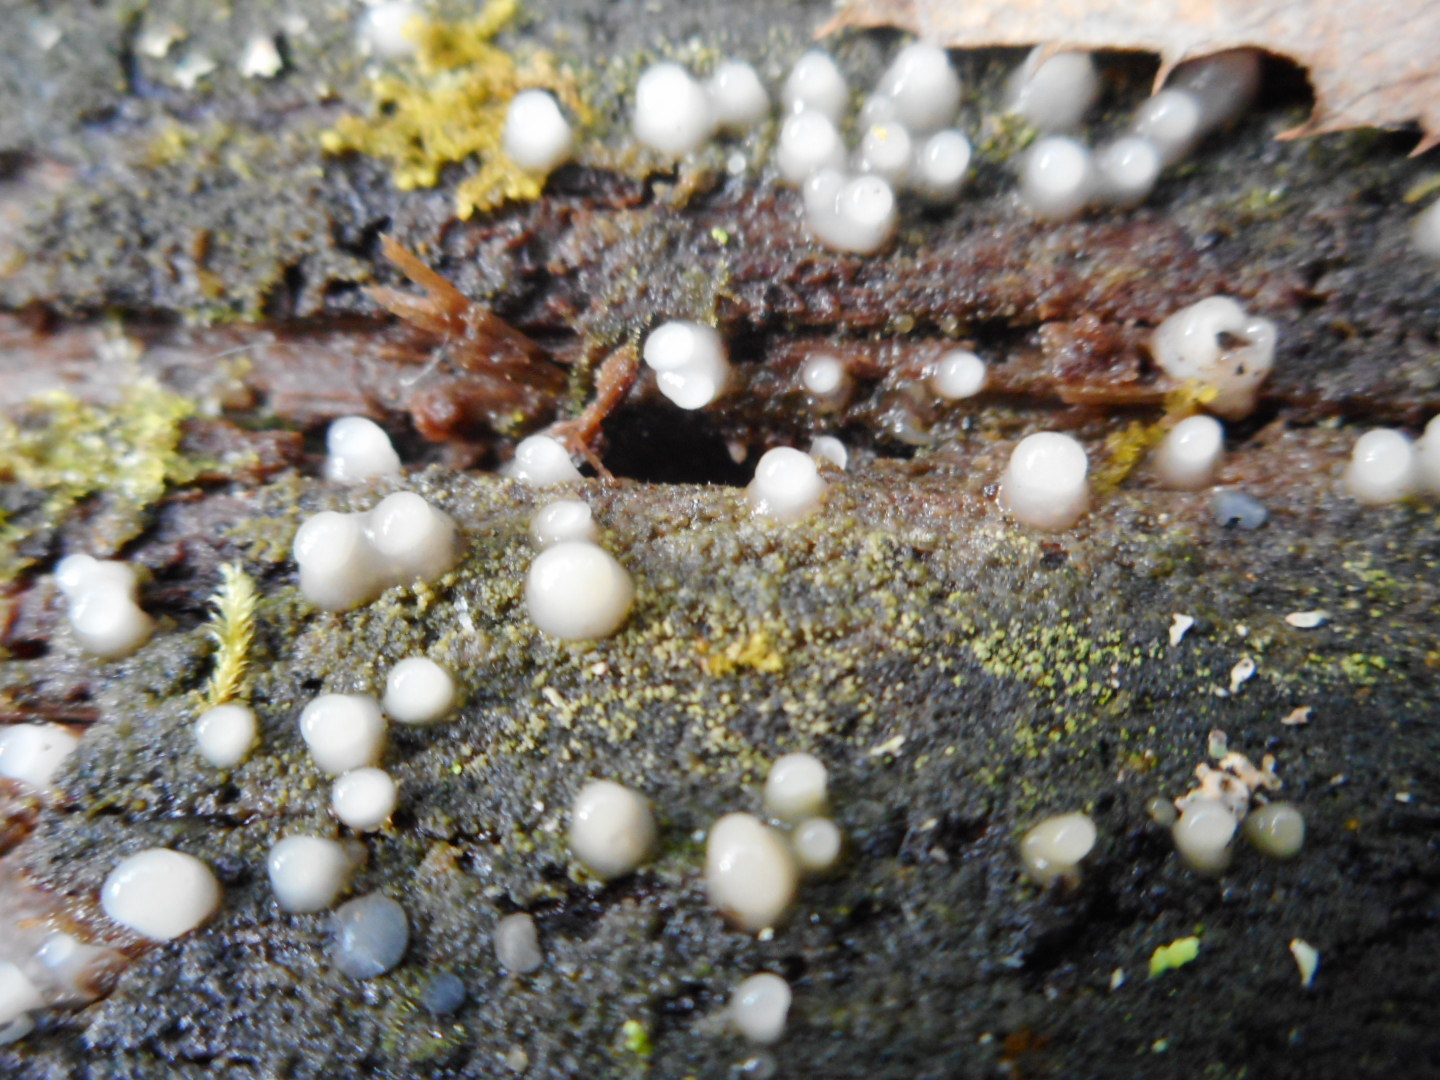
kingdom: Fungi
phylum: Basidiomycota
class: Atractiellomycetes
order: Atractiellales
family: Phleogenaceae
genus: Helicogloea
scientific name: Helicogloea compressa
